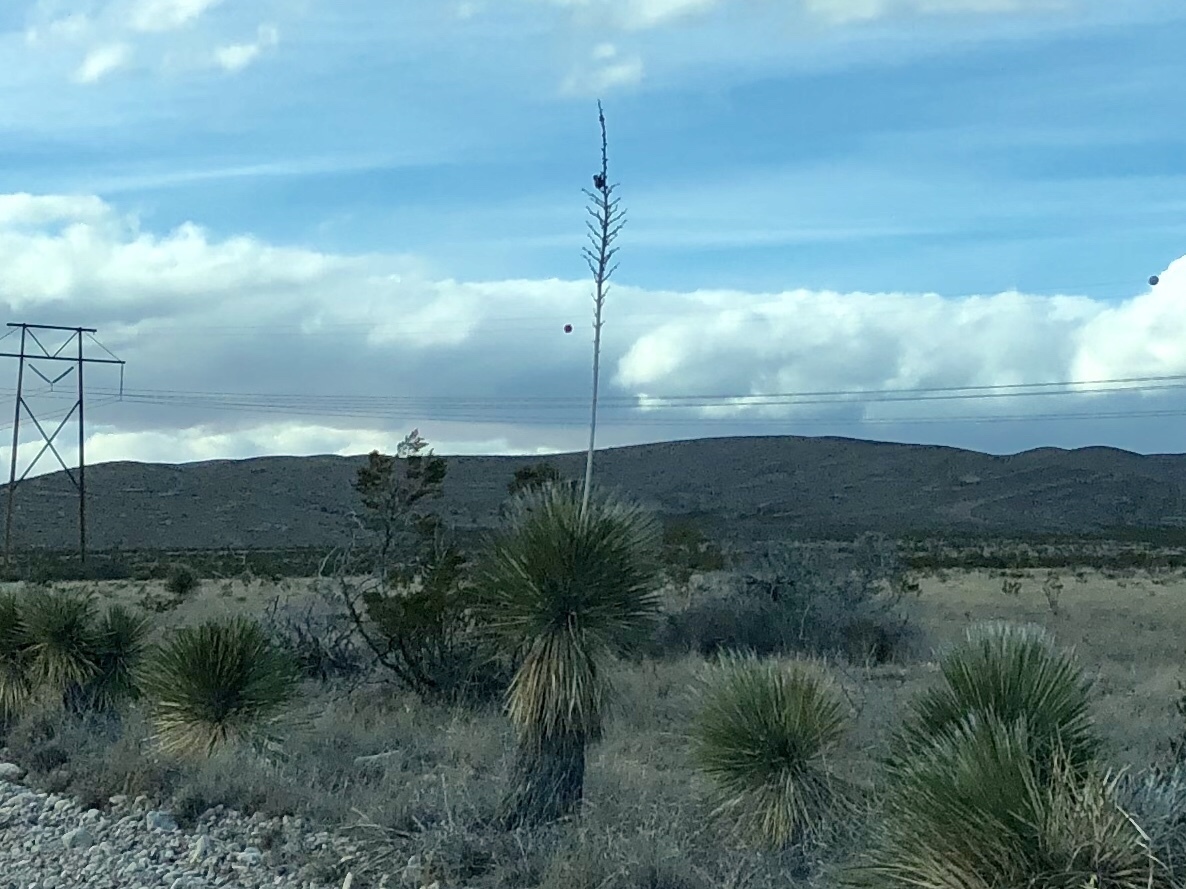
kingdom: Plantae
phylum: Tracheophyta
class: Liliopsida
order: Asparagales
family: Asparagaceae
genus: Yucca
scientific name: Yucca elata
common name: Palmella
